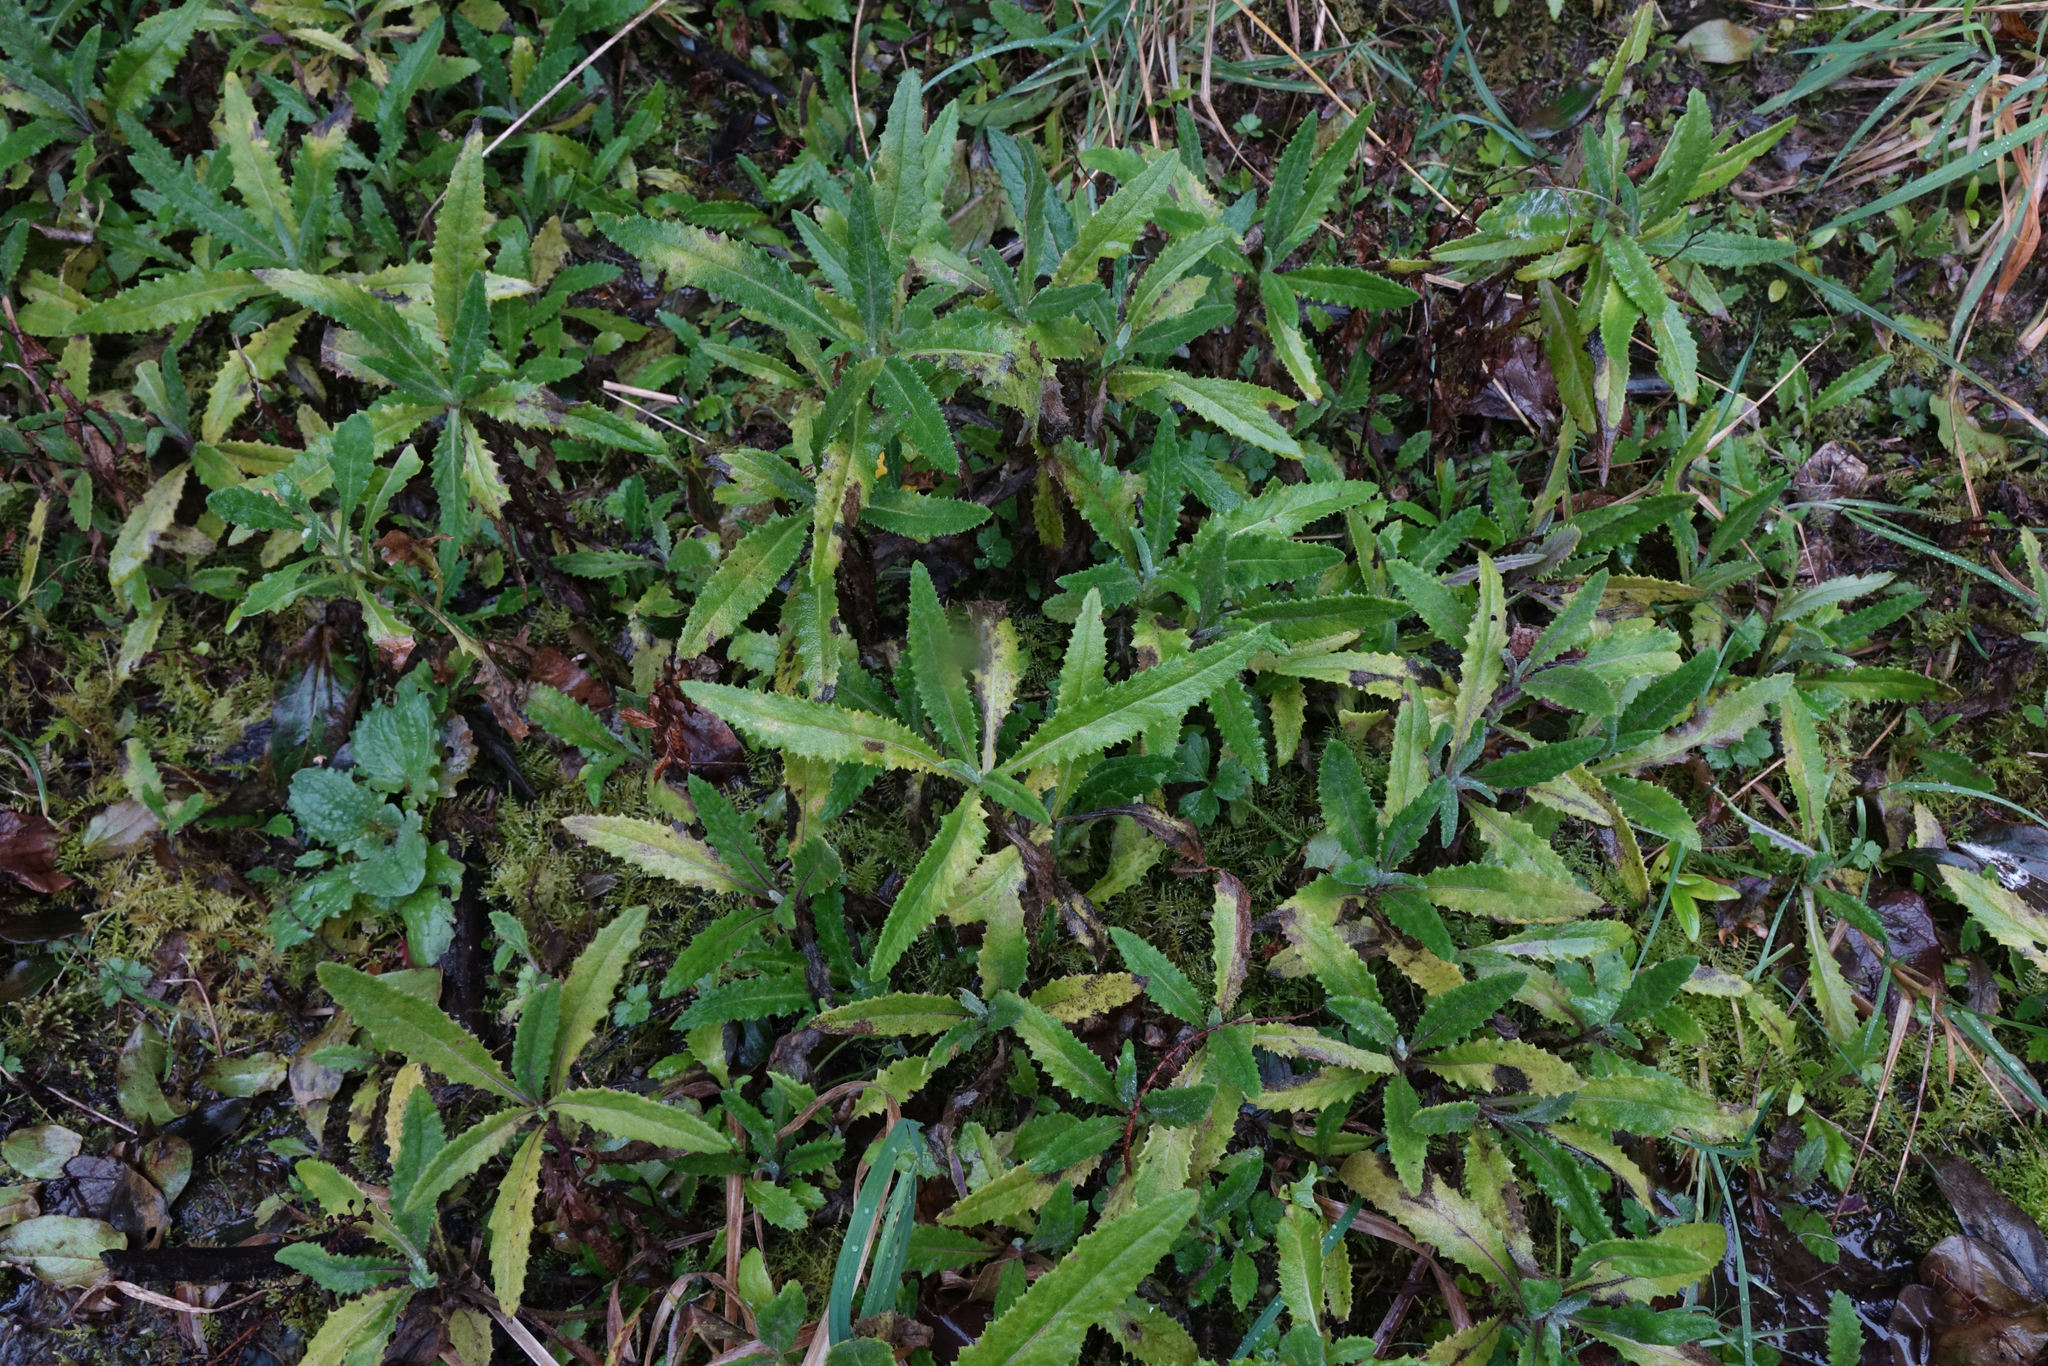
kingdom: Plantae
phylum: Tracheophyta
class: Magnoliopsida
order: Asterales
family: Asteraceae
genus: Senecio
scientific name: Senecio minimus
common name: Toothed fireweed
